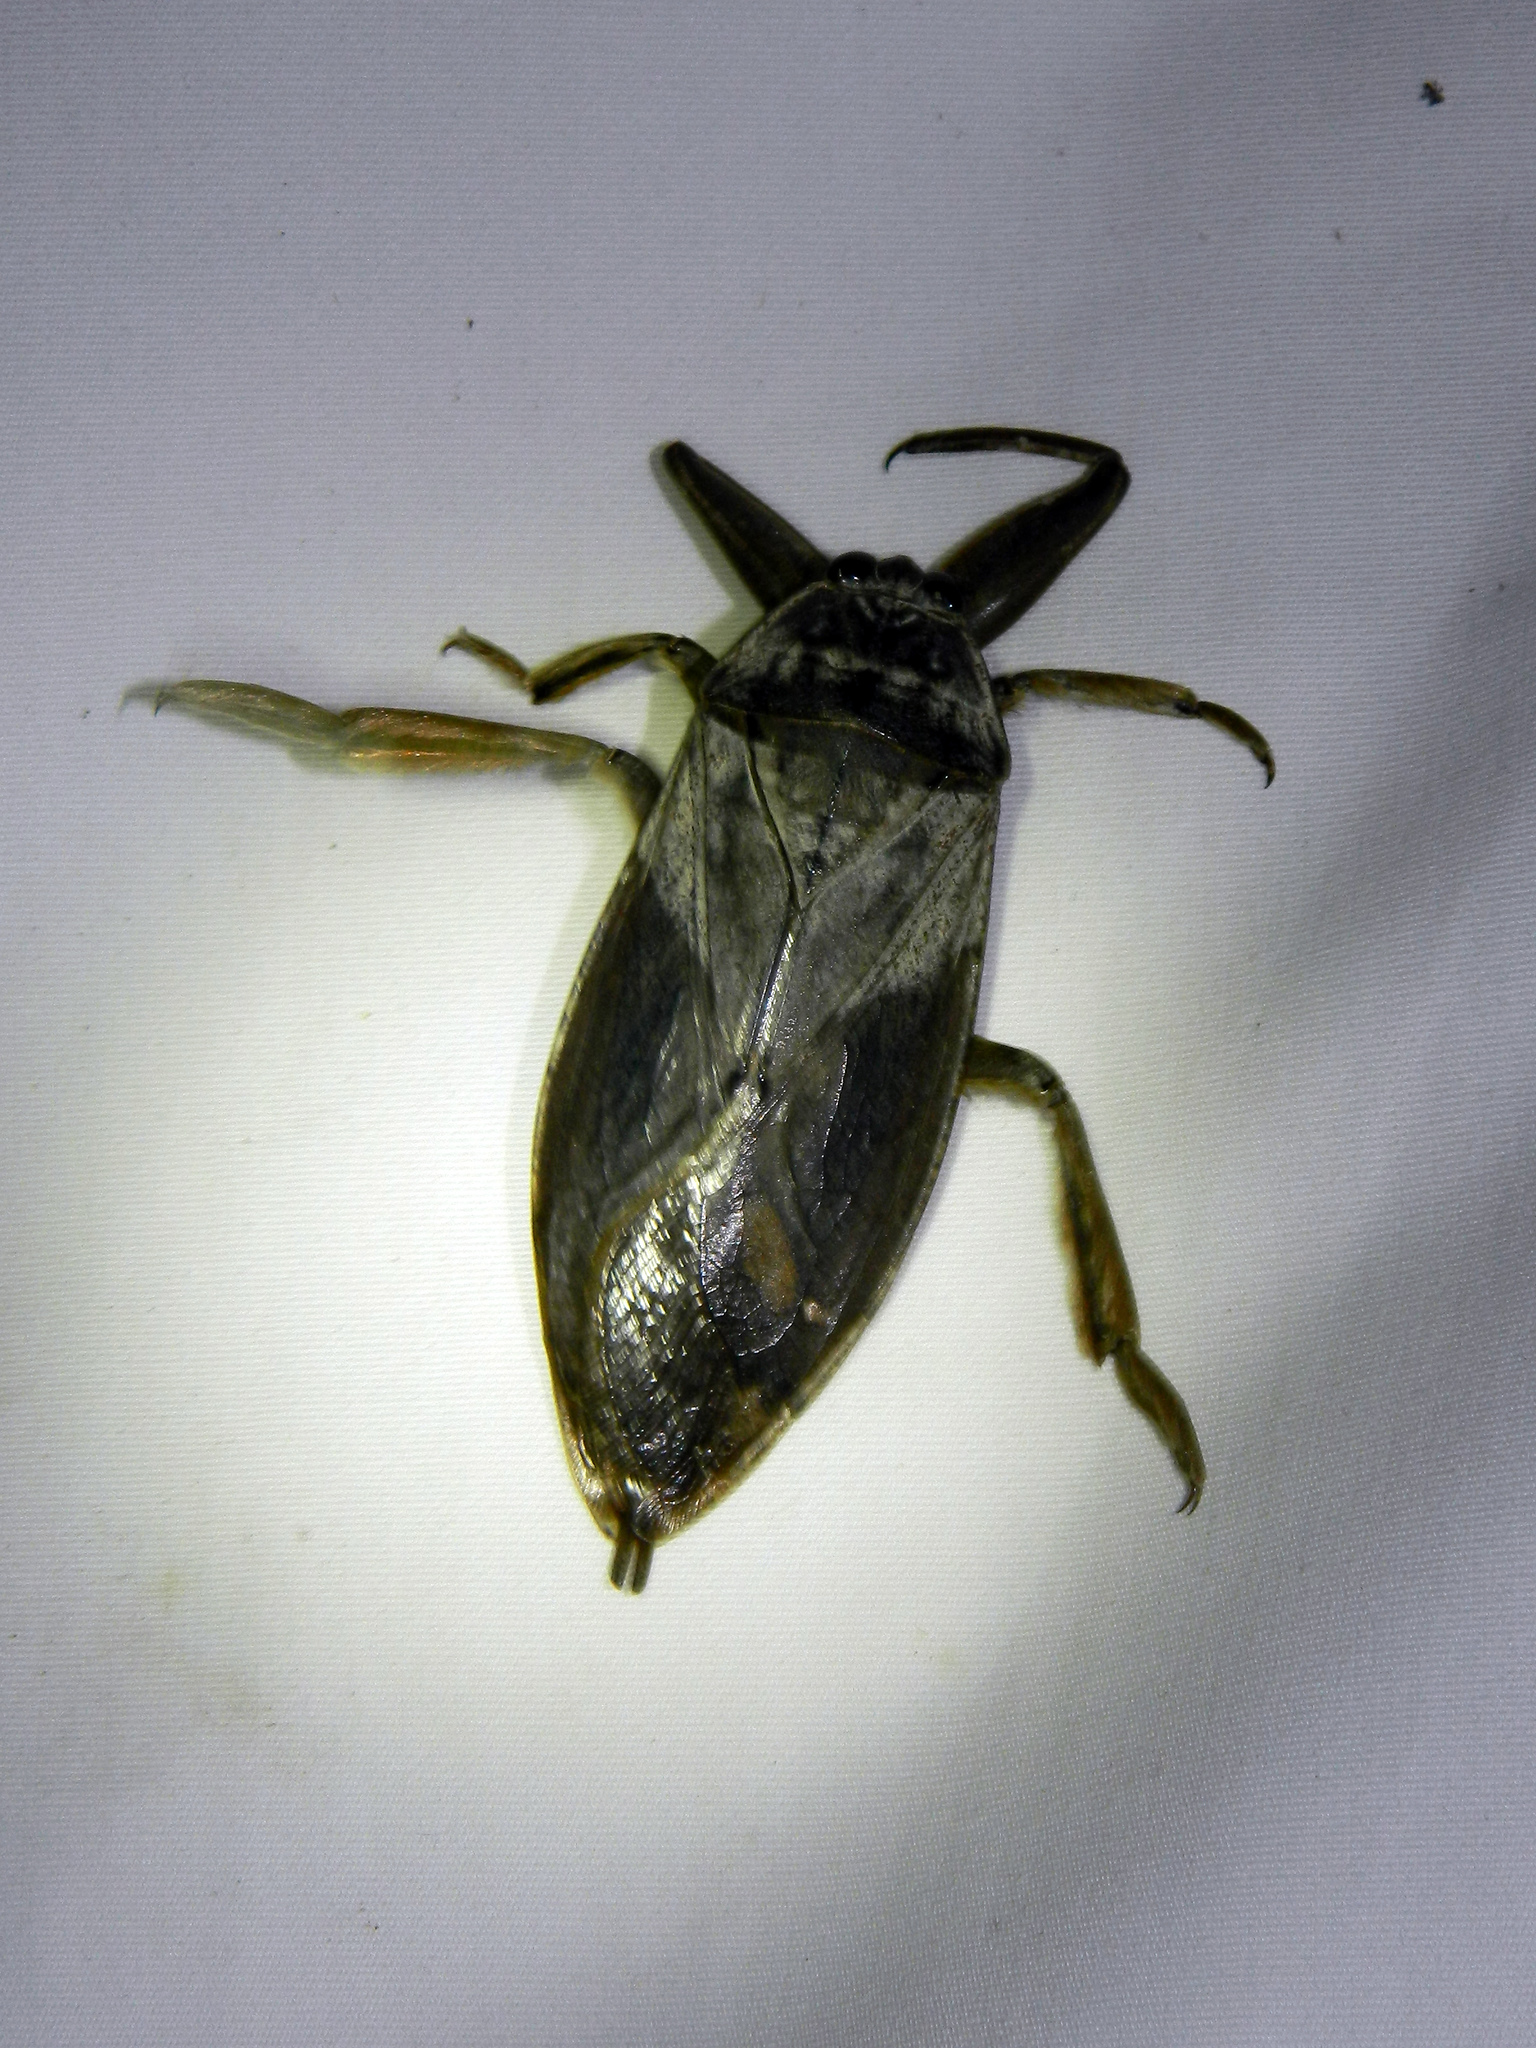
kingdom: Animalia
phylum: Arthropoda
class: Insecta
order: Hemiptera
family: Belostomatidae
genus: Lethocerus
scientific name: Lethocerus americanus
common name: Giant water bug
